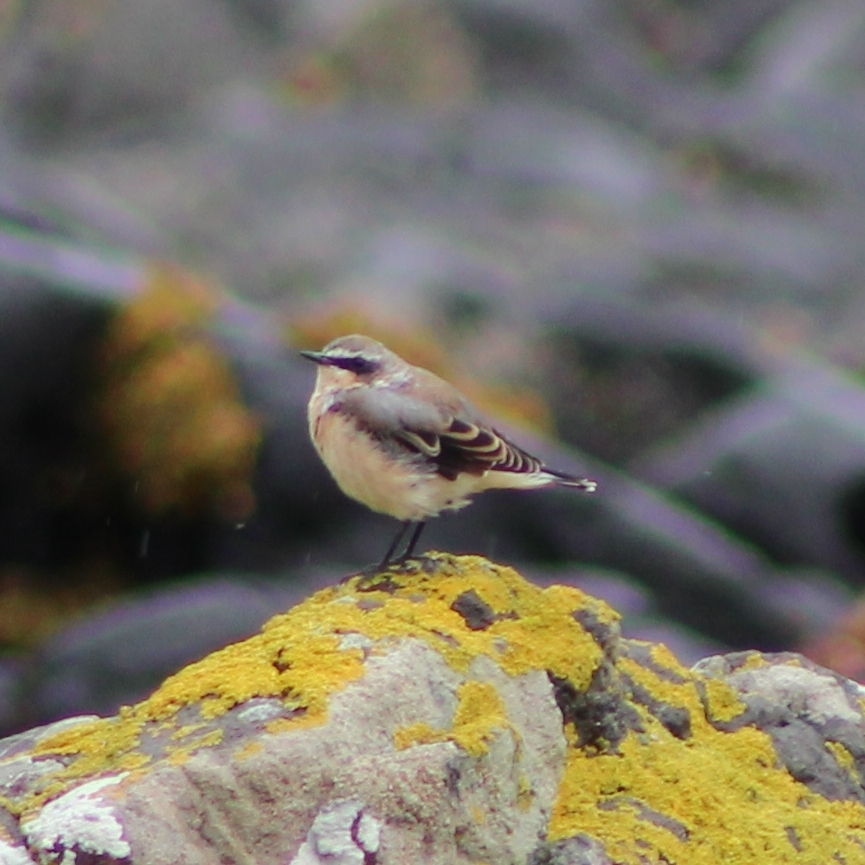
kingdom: Animalia
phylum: Chordata
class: Aves
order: Passeriformes
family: Muscicapidae
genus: Oenanthe
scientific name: Oenanthe oenanthe
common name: Northern wheatear
